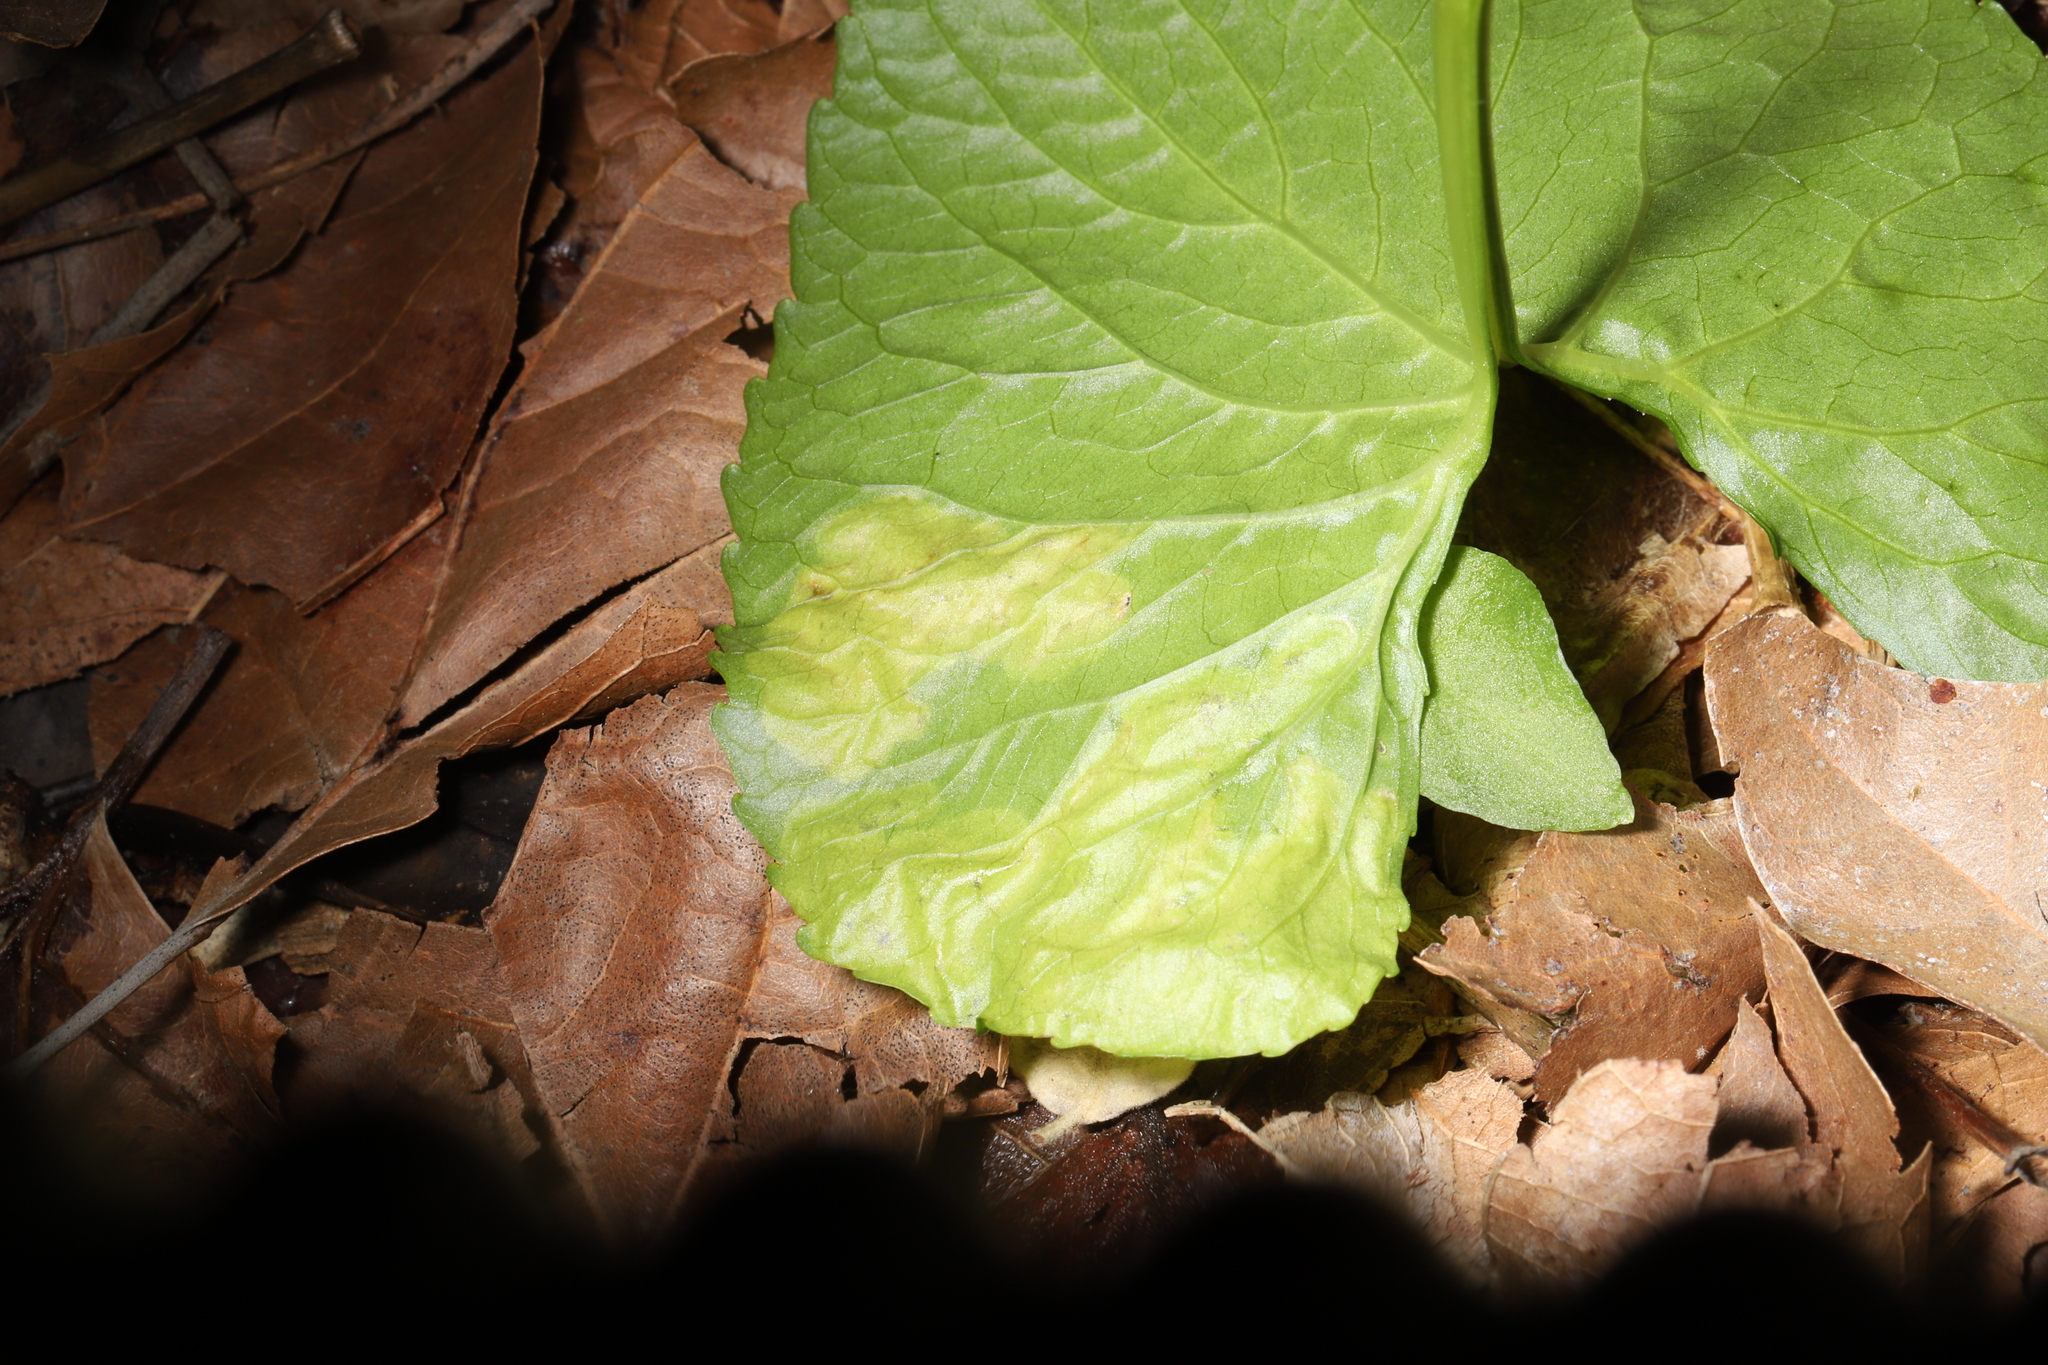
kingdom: Animalia
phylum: Arthropoda
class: Insecta
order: Diptera
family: Agromyzidae
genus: Liriomyza
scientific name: Liriomyza violivora
